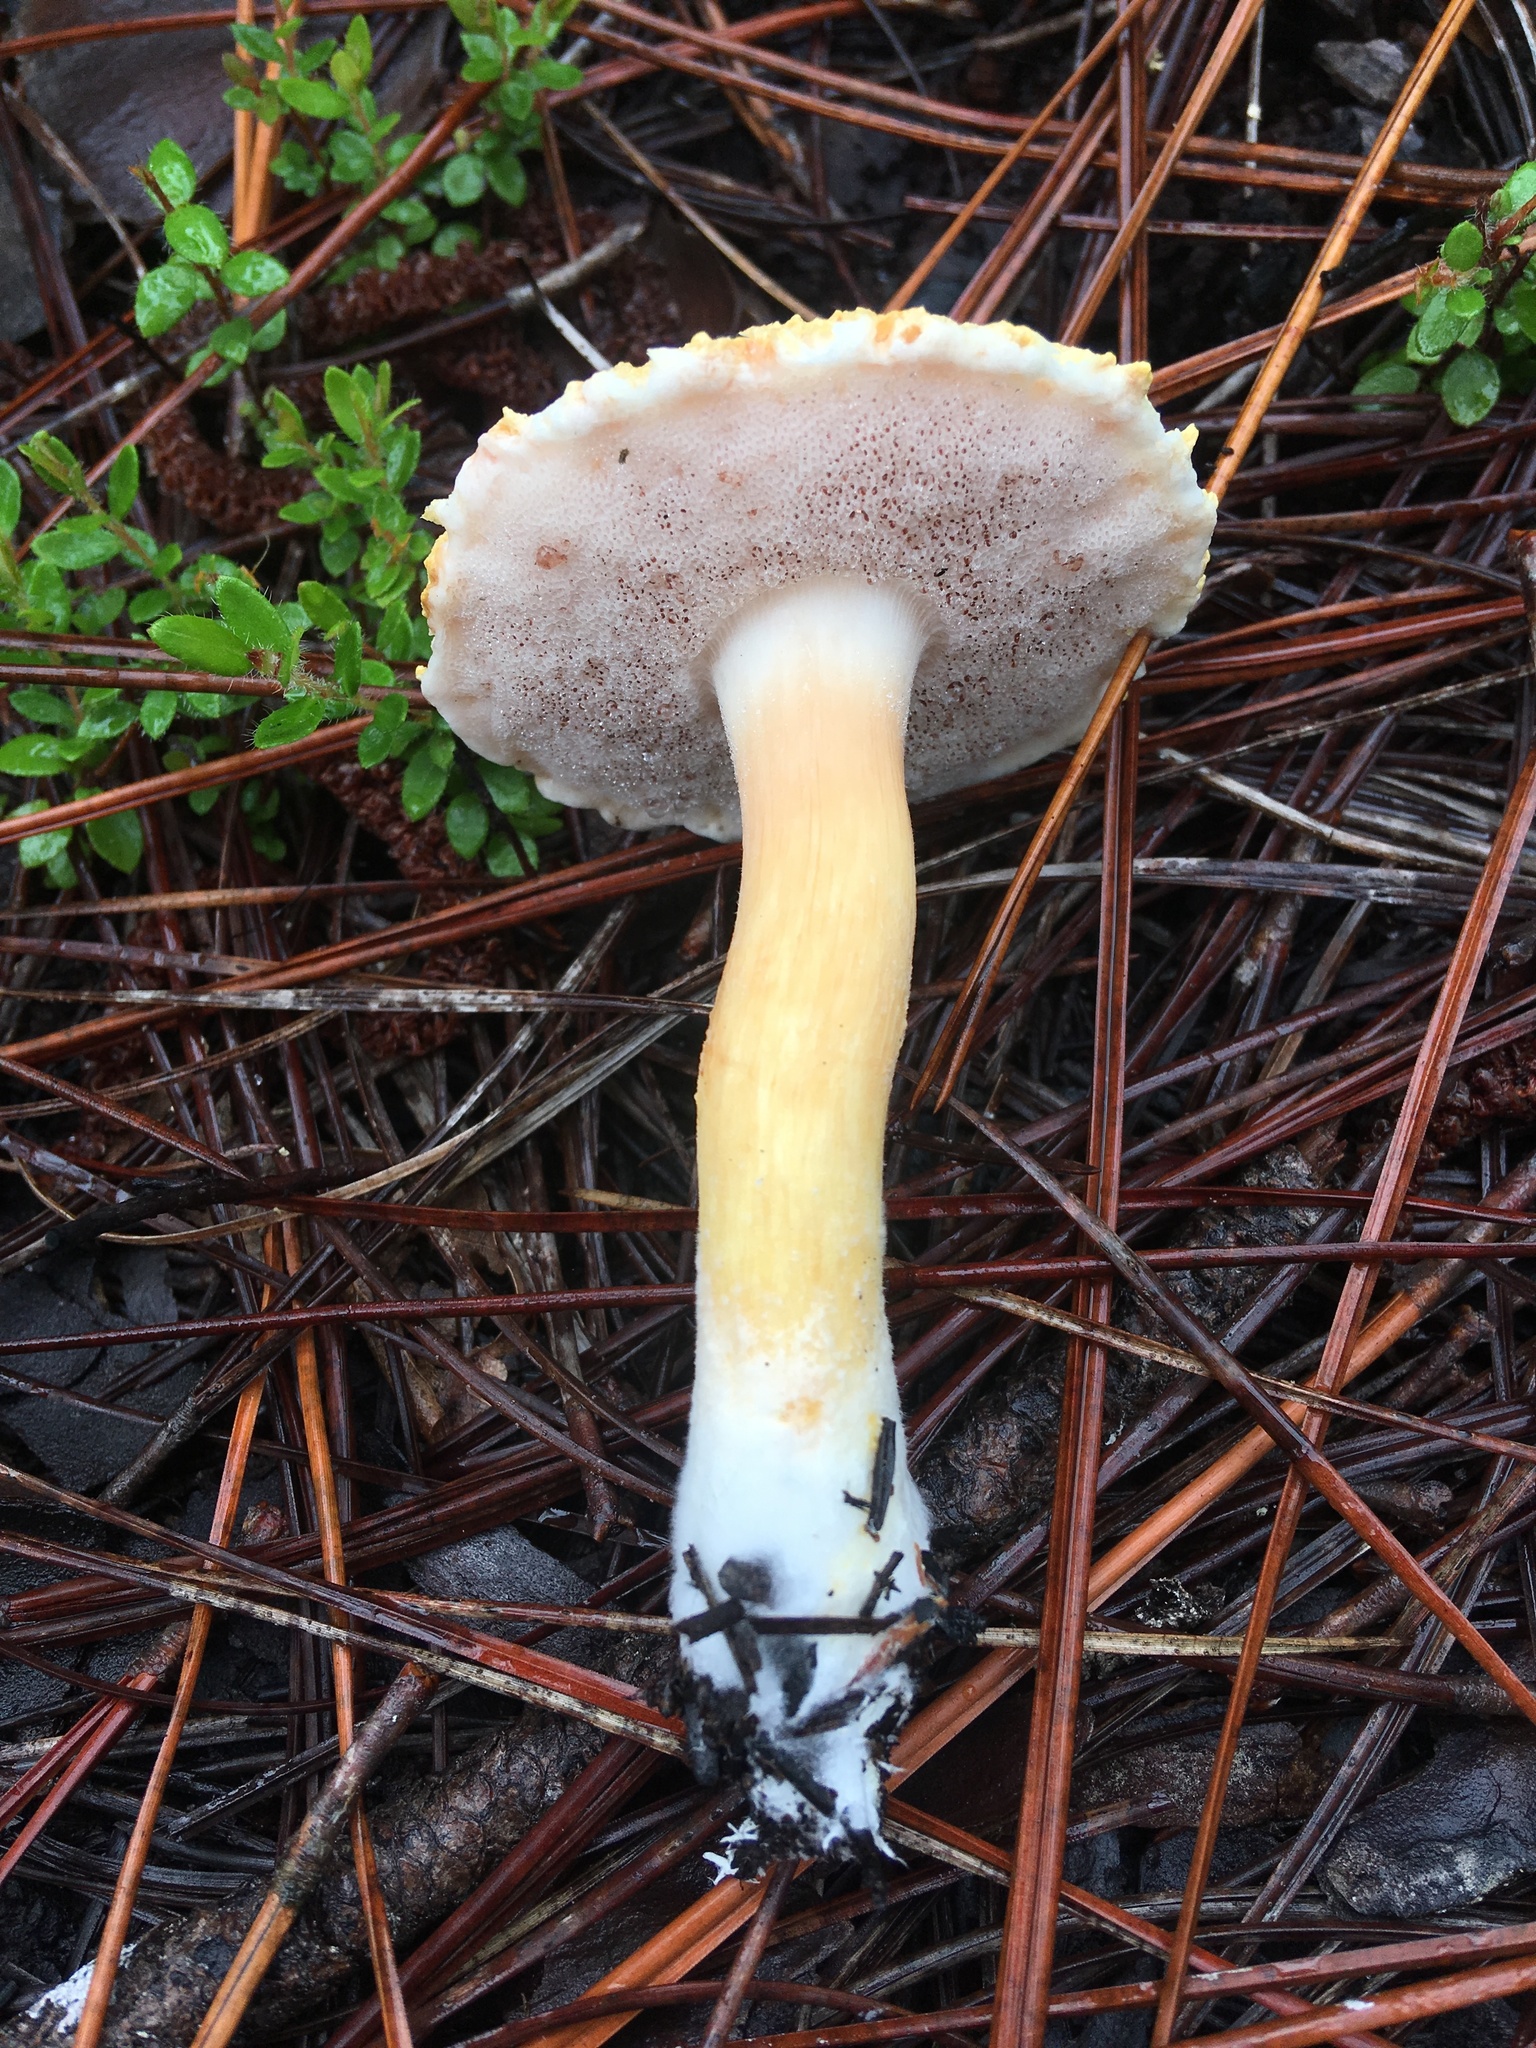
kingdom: Fungi
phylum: Basidiomycota
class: Agaricomycetes
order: Boletales
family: Boletaceae
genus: Veloporphyrellus
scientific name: Veloporphyrellus conicus
